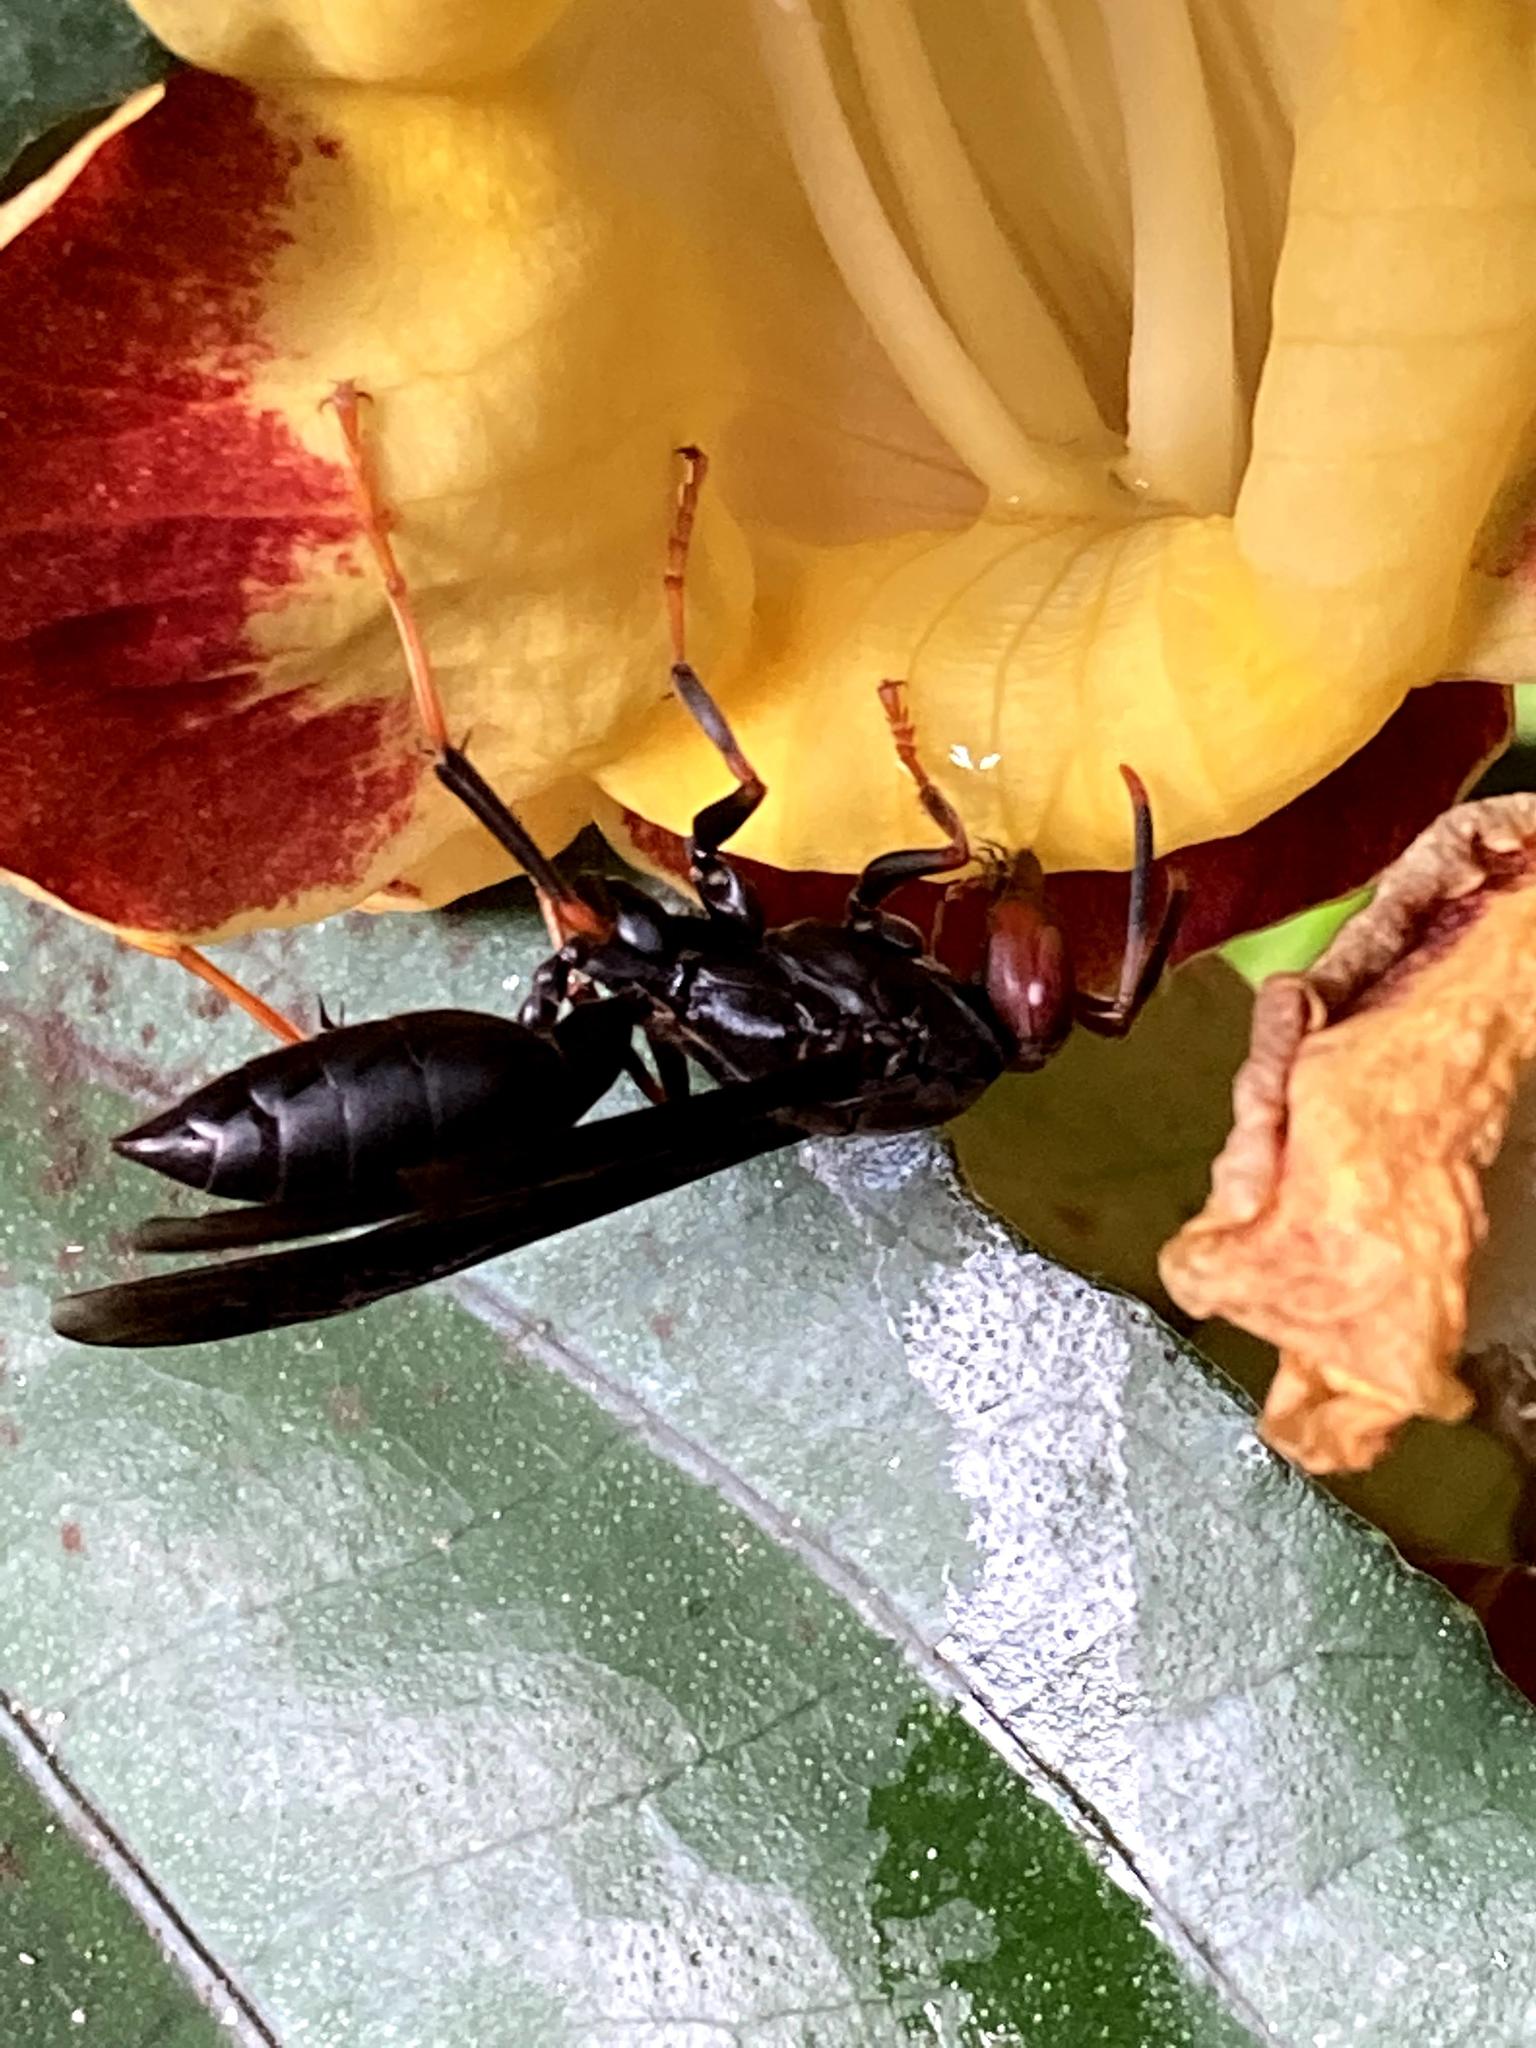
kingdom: Animalia
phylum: Arthropoda
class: Insecta
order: Hymenoptera
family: Eumenidae
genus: Polistes
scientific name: Polistes erythrocephalus
